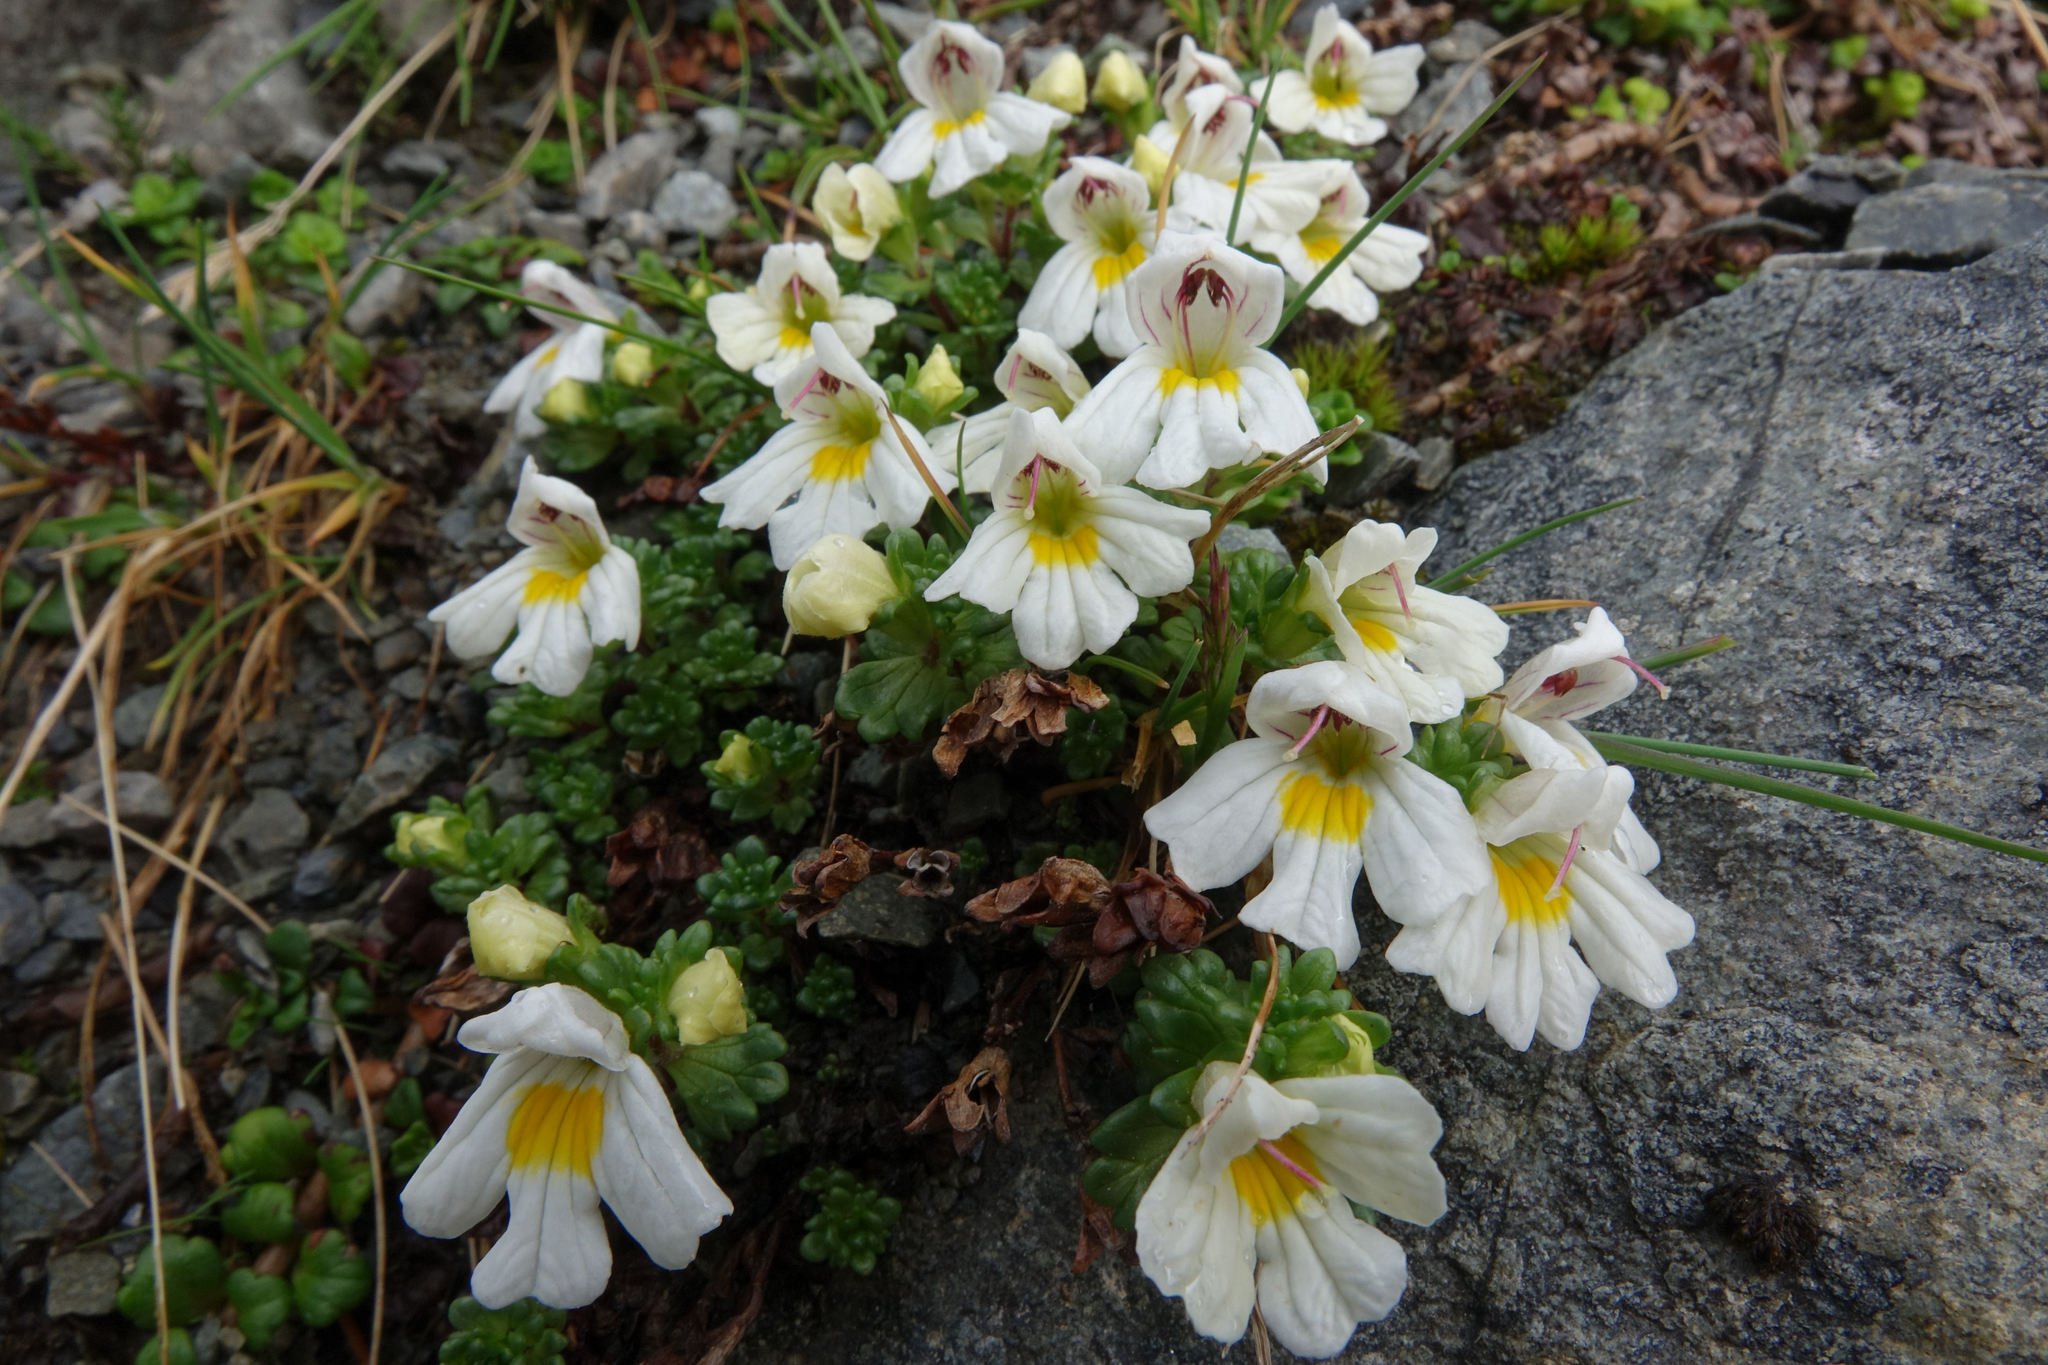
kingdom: Plantae
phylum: Tracheophyta
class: Magnoliopsida
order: Lamiales
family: Orobanchaceae
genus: Euphrasia
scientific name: Euphrasia petriei
